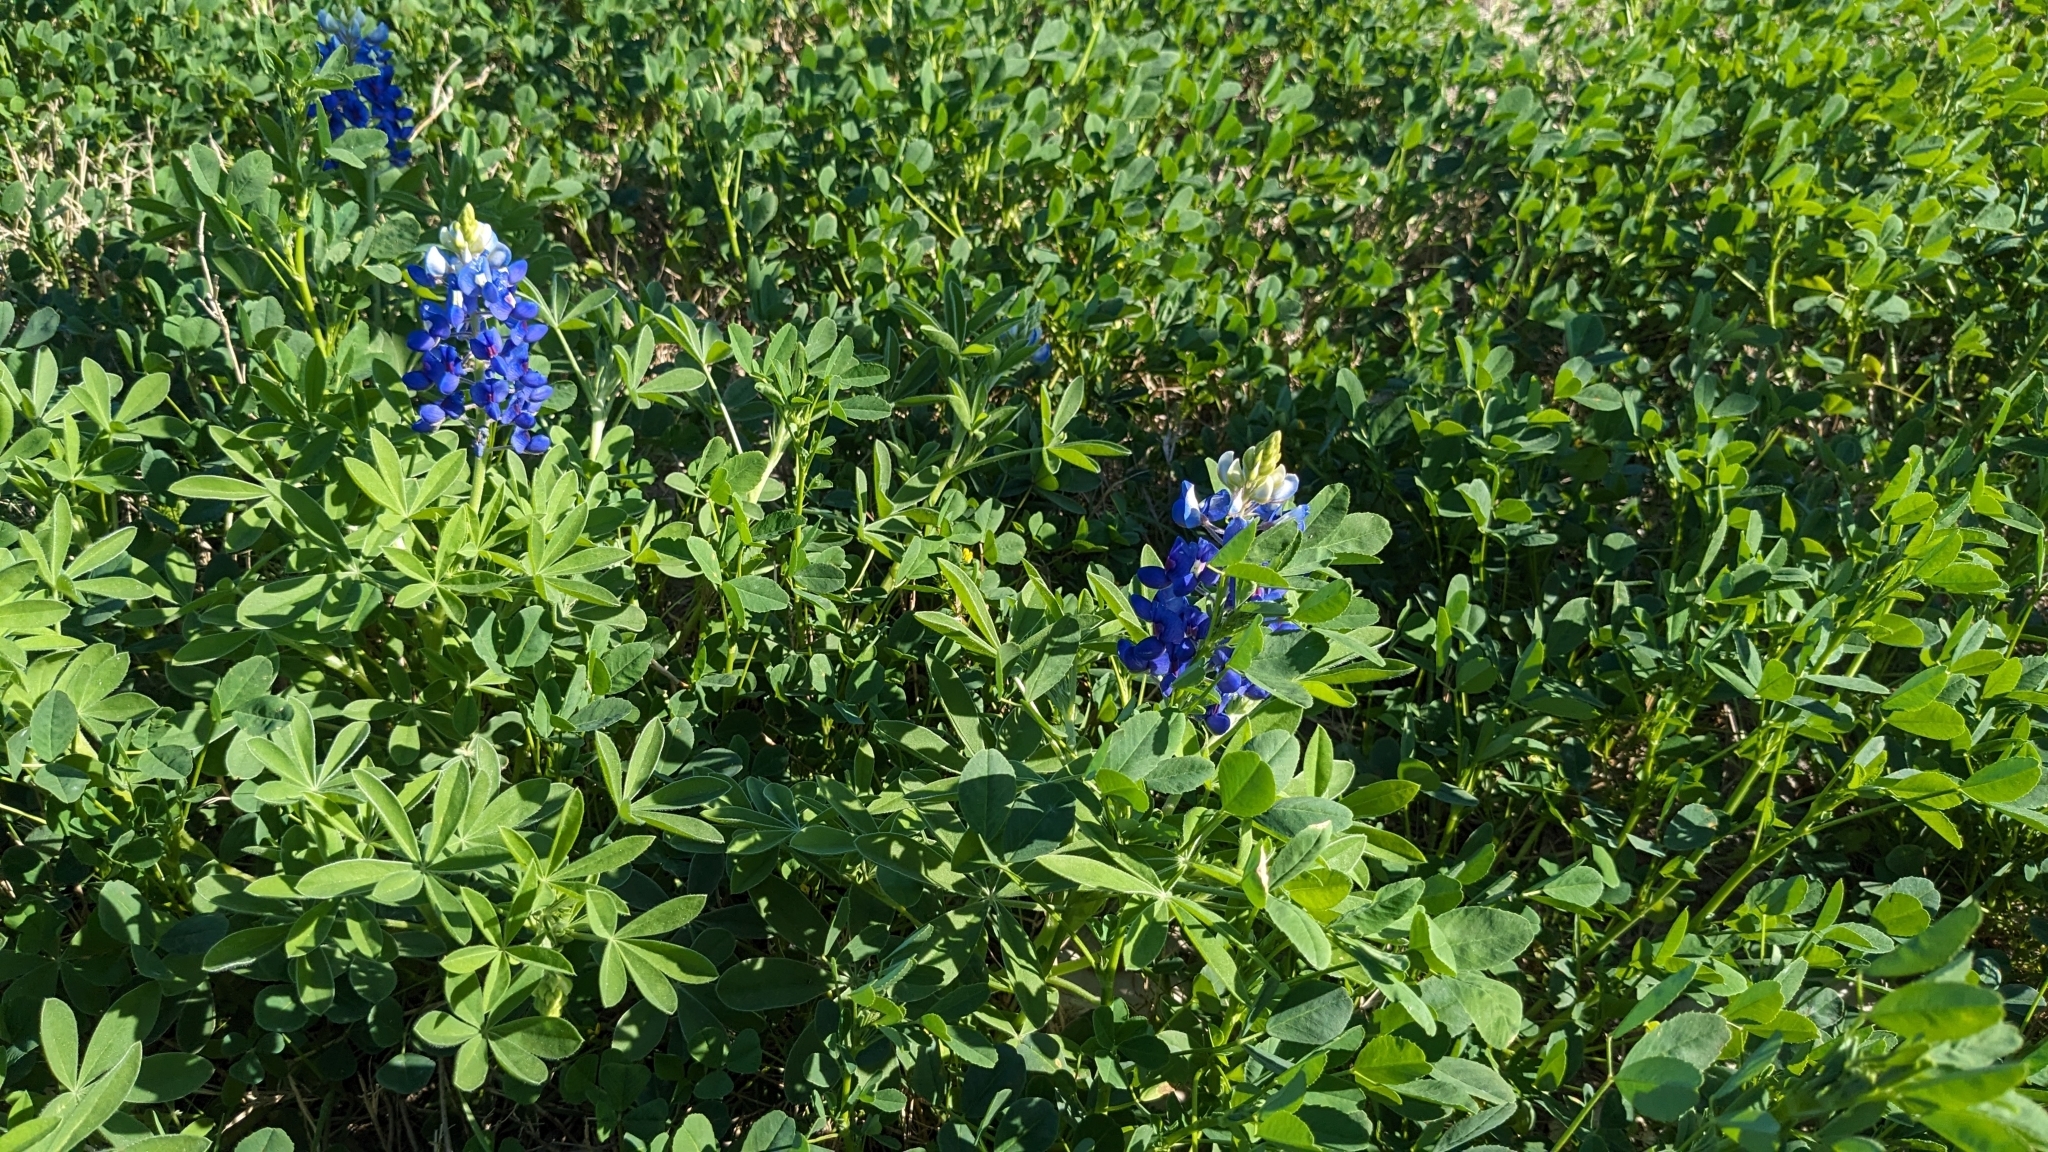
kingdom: Plantae
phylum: Tracheophyta
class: Magnoliopsida
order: Fabales
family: Fabaceae
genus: Lupinus
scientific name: Lupinus texensis
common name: Texas bluebonnet
